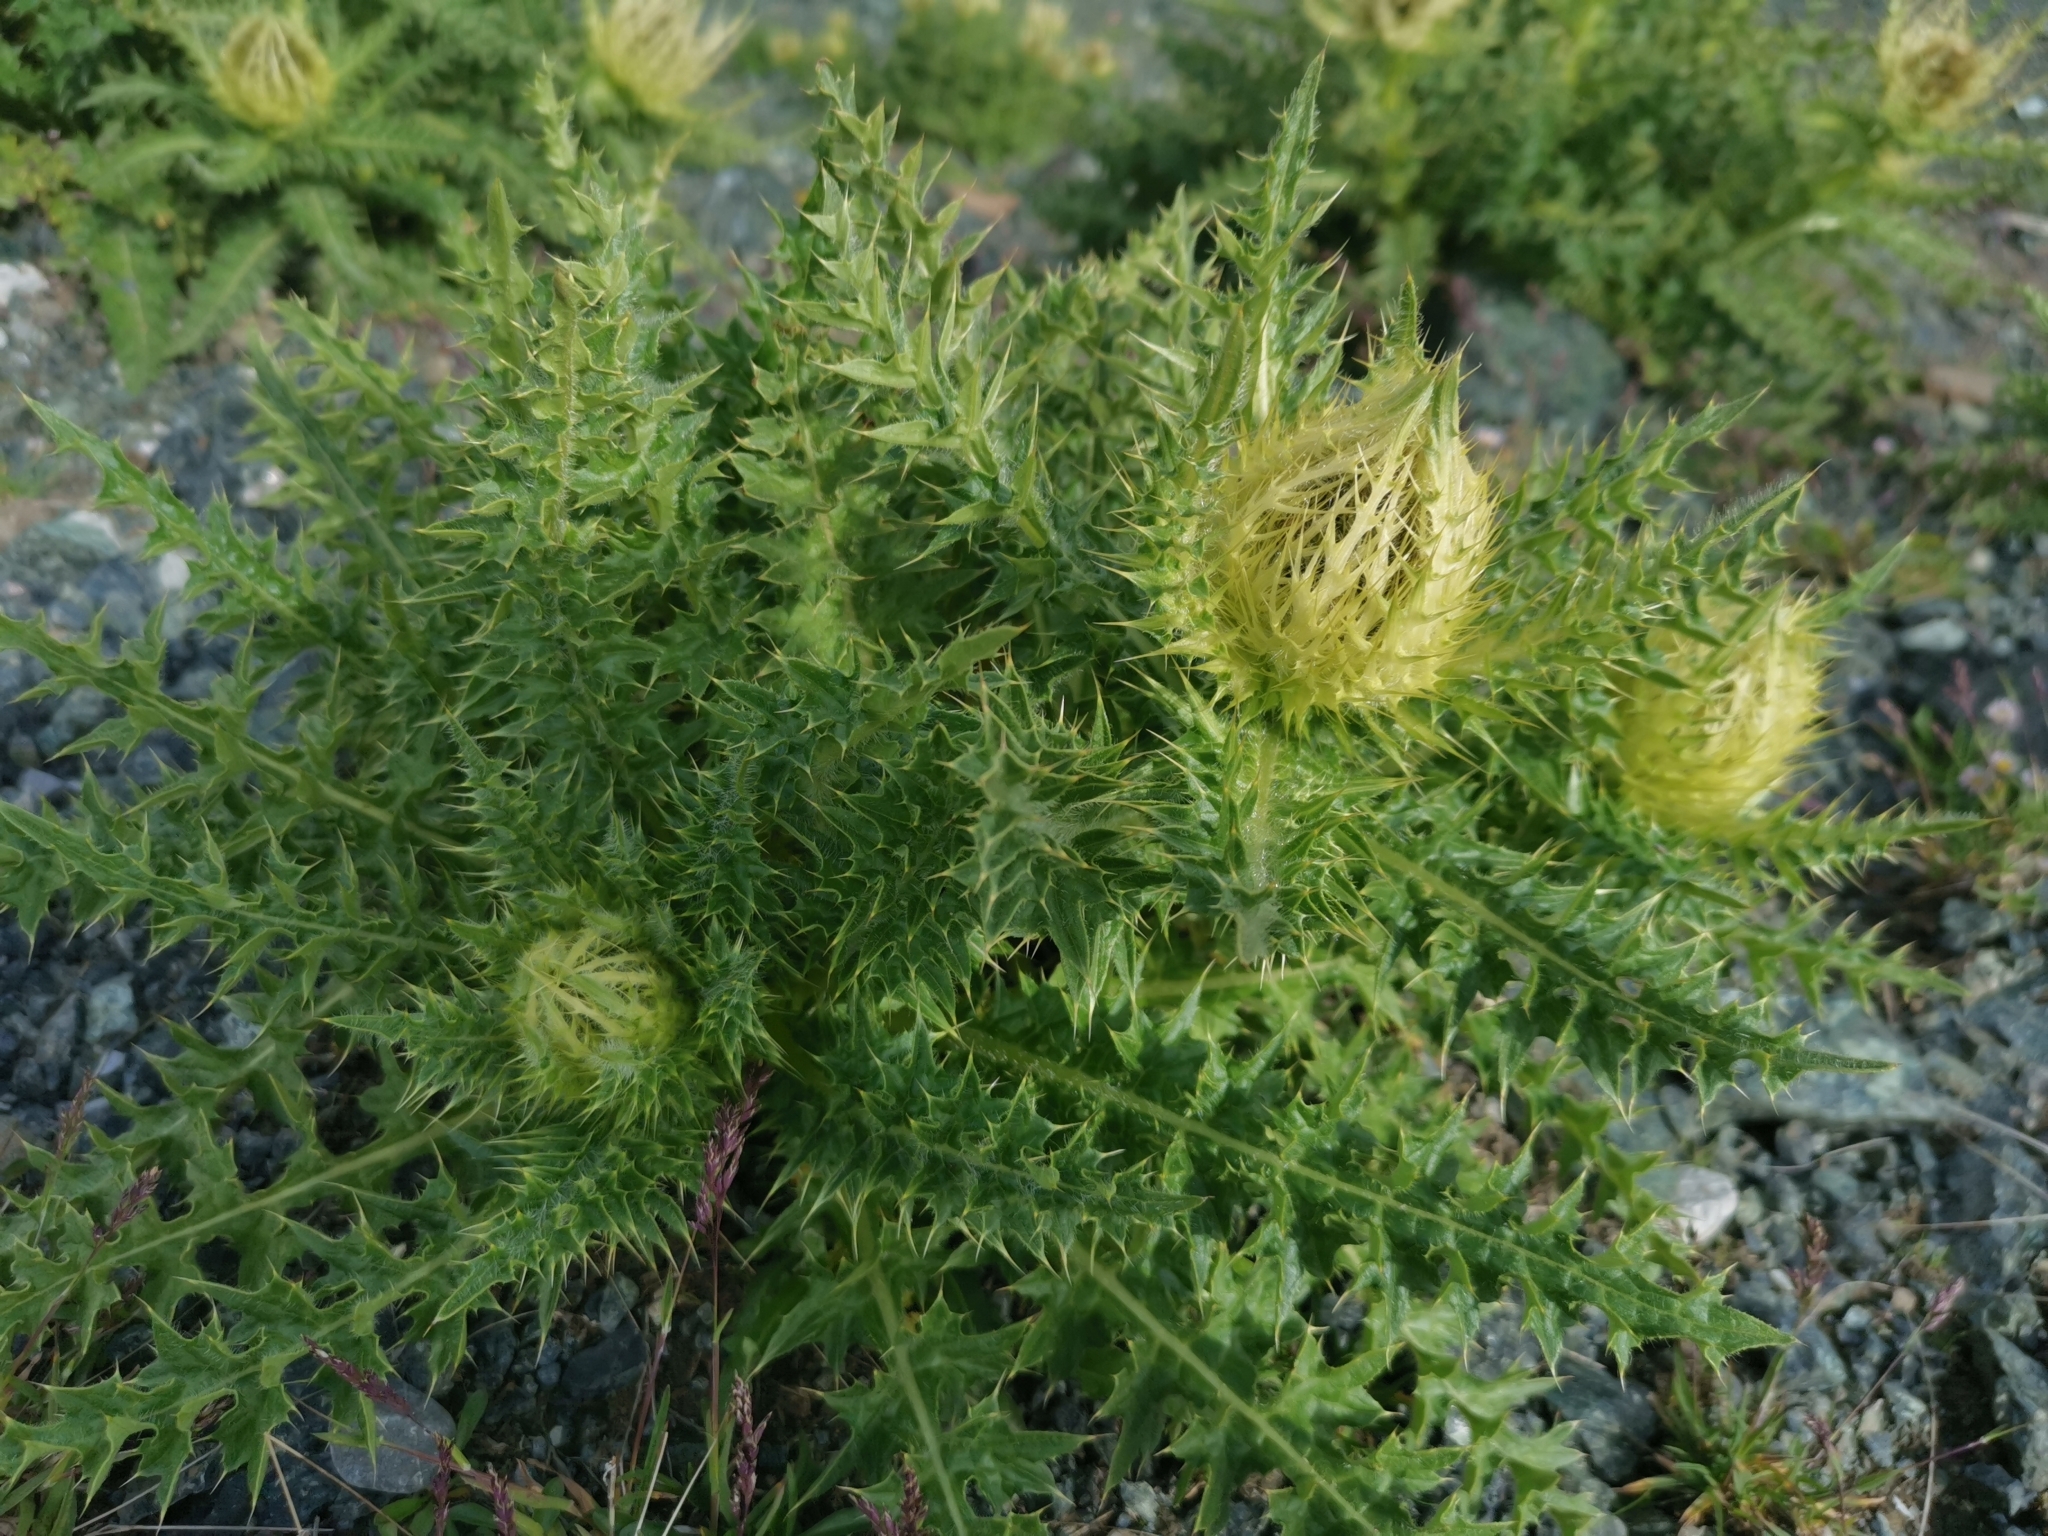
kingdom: Plantae
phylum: Tracheophyta
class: Magnoliopsida
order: Asterales
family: Asteraceae
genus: Cirsium
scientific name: Cirsium spinosissimum
